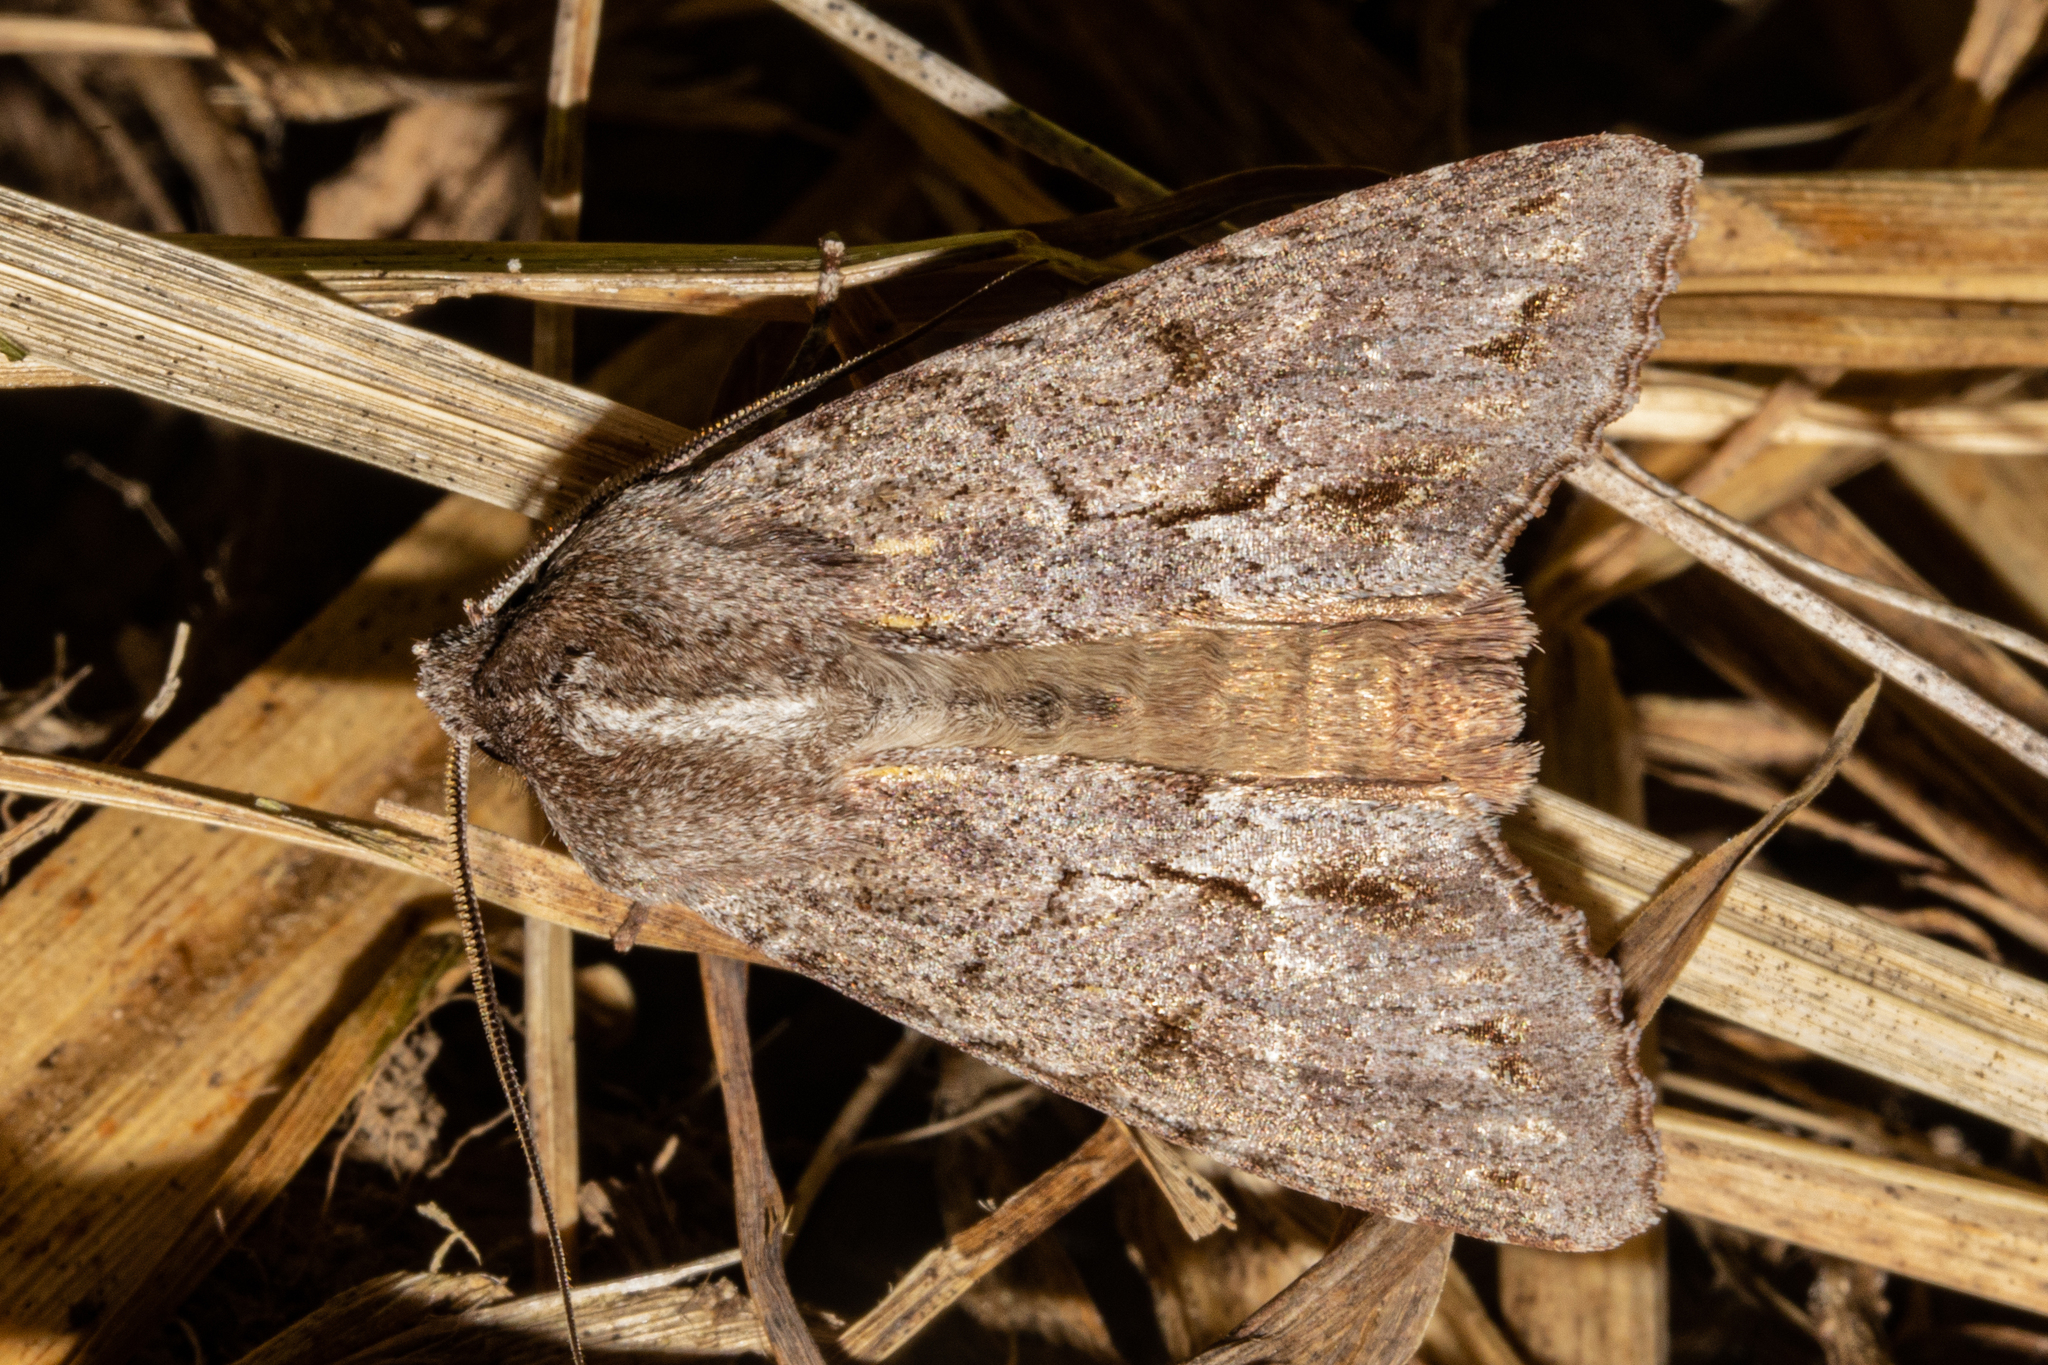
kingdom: Animalia
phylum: Arthropoda
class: Insecta
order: Lepidoptera
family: Noctuidae
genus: Ichneutica
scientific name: Ichneutica
